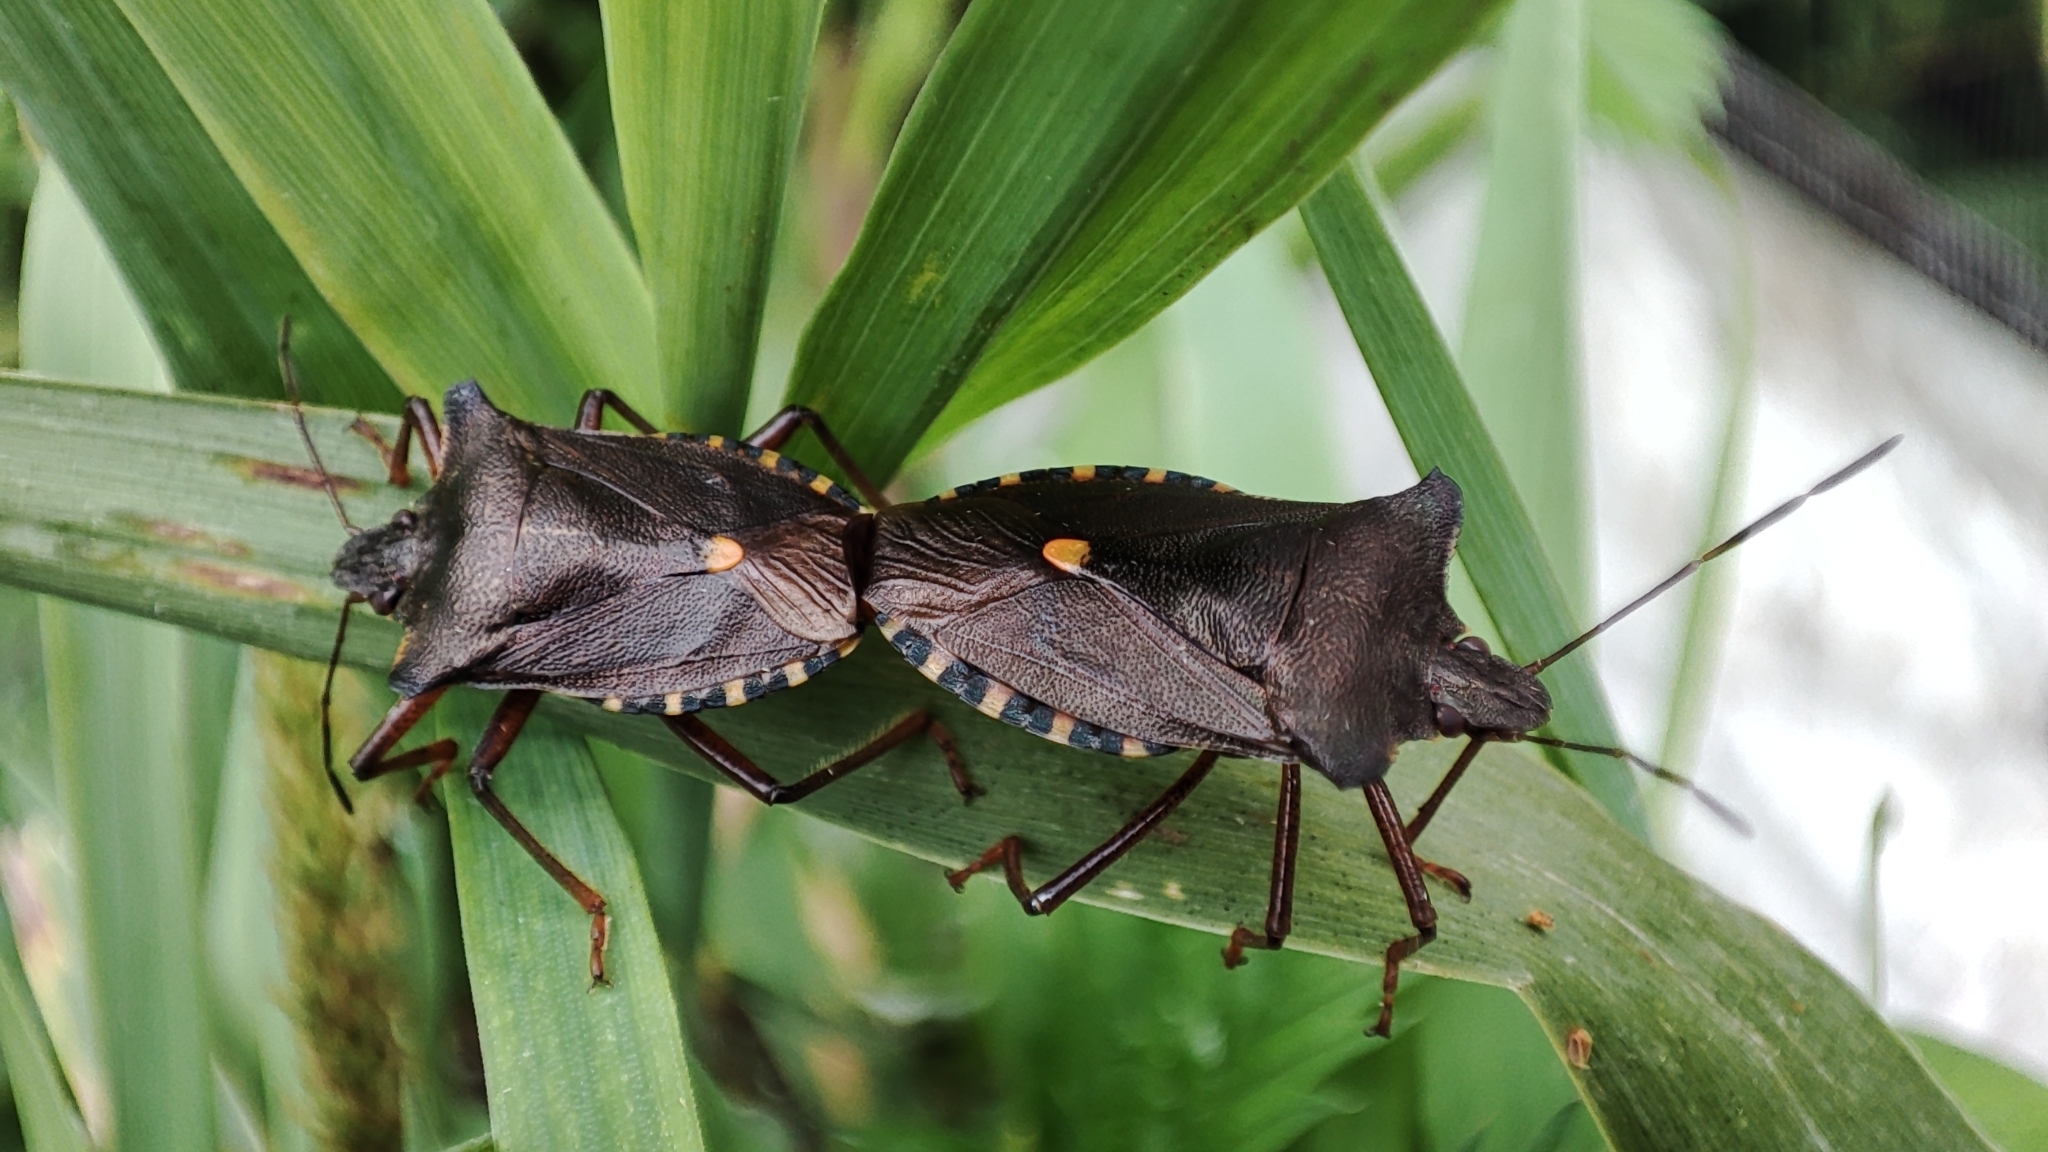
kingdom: Animalia
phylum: Arthropoda
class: Insecta
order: Hemiptera
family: Pentatomidae
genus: Pentatoma
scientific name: Pentatoma rufipes
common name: Forest bug
